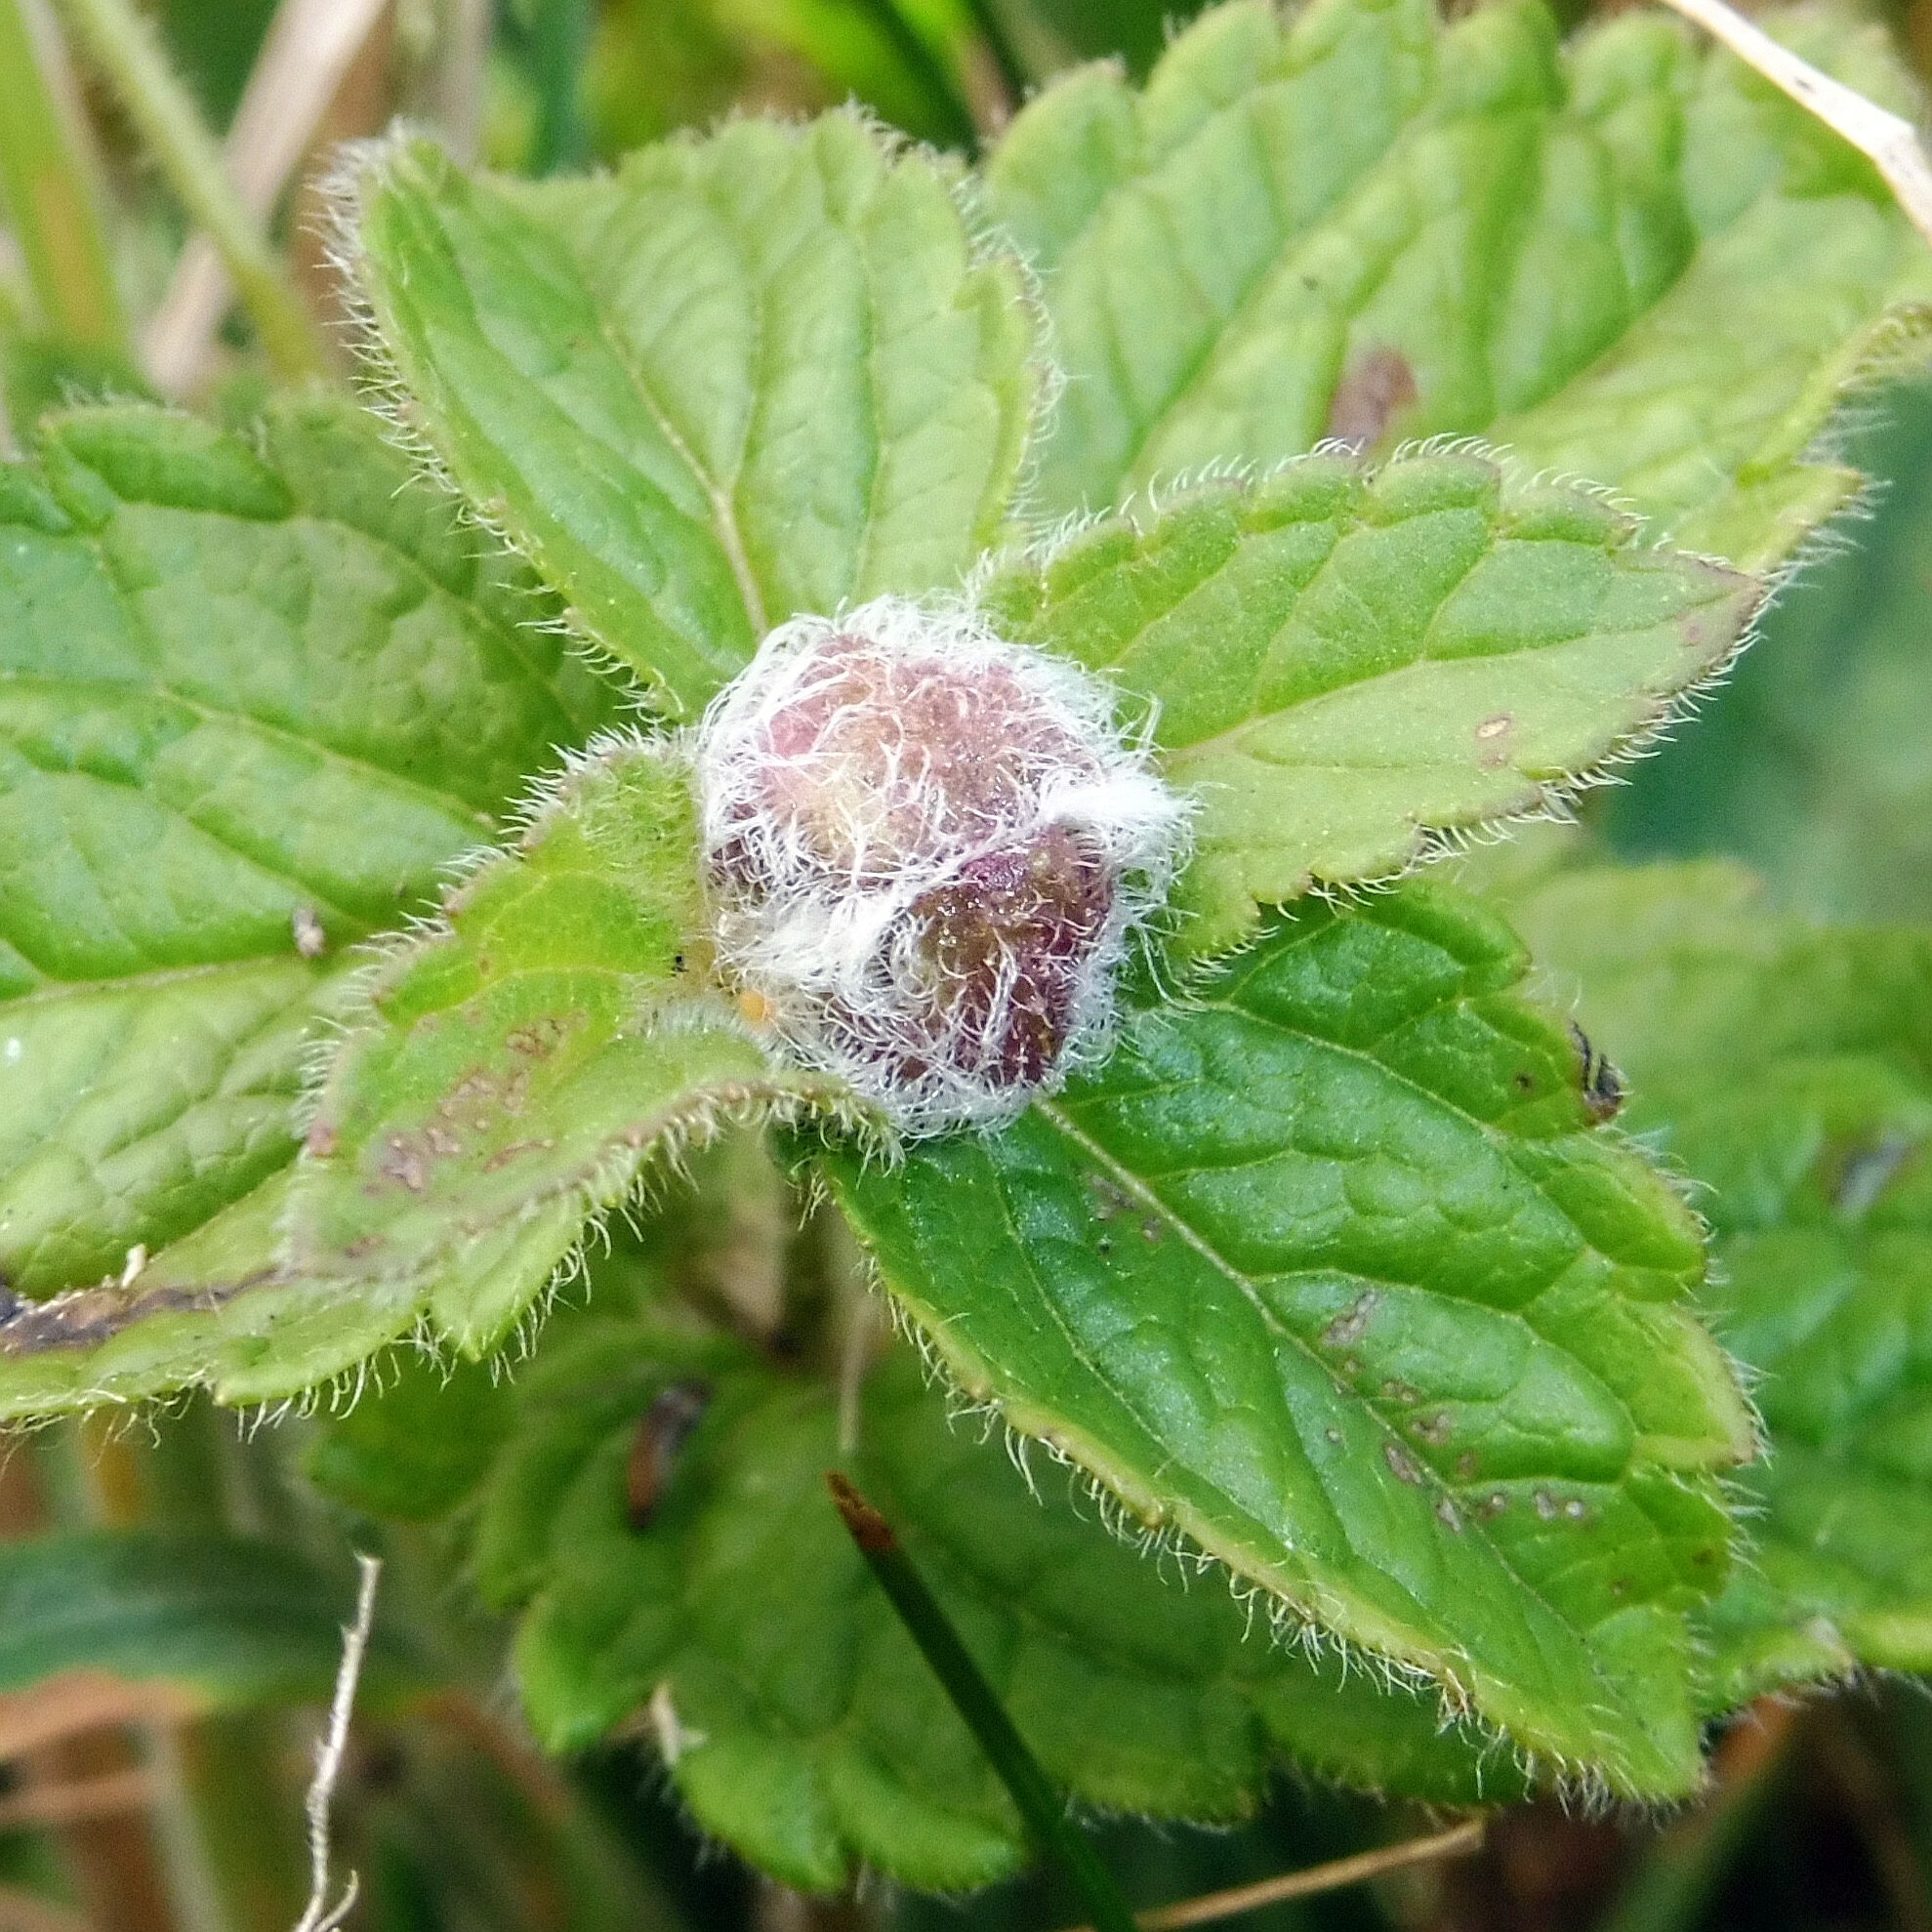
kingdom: Animalia
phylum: Arthropoda
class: Insecta
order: Diptera
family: Cecidomyiidae
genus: Jaapiella
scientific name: Jaapiella veronicae
